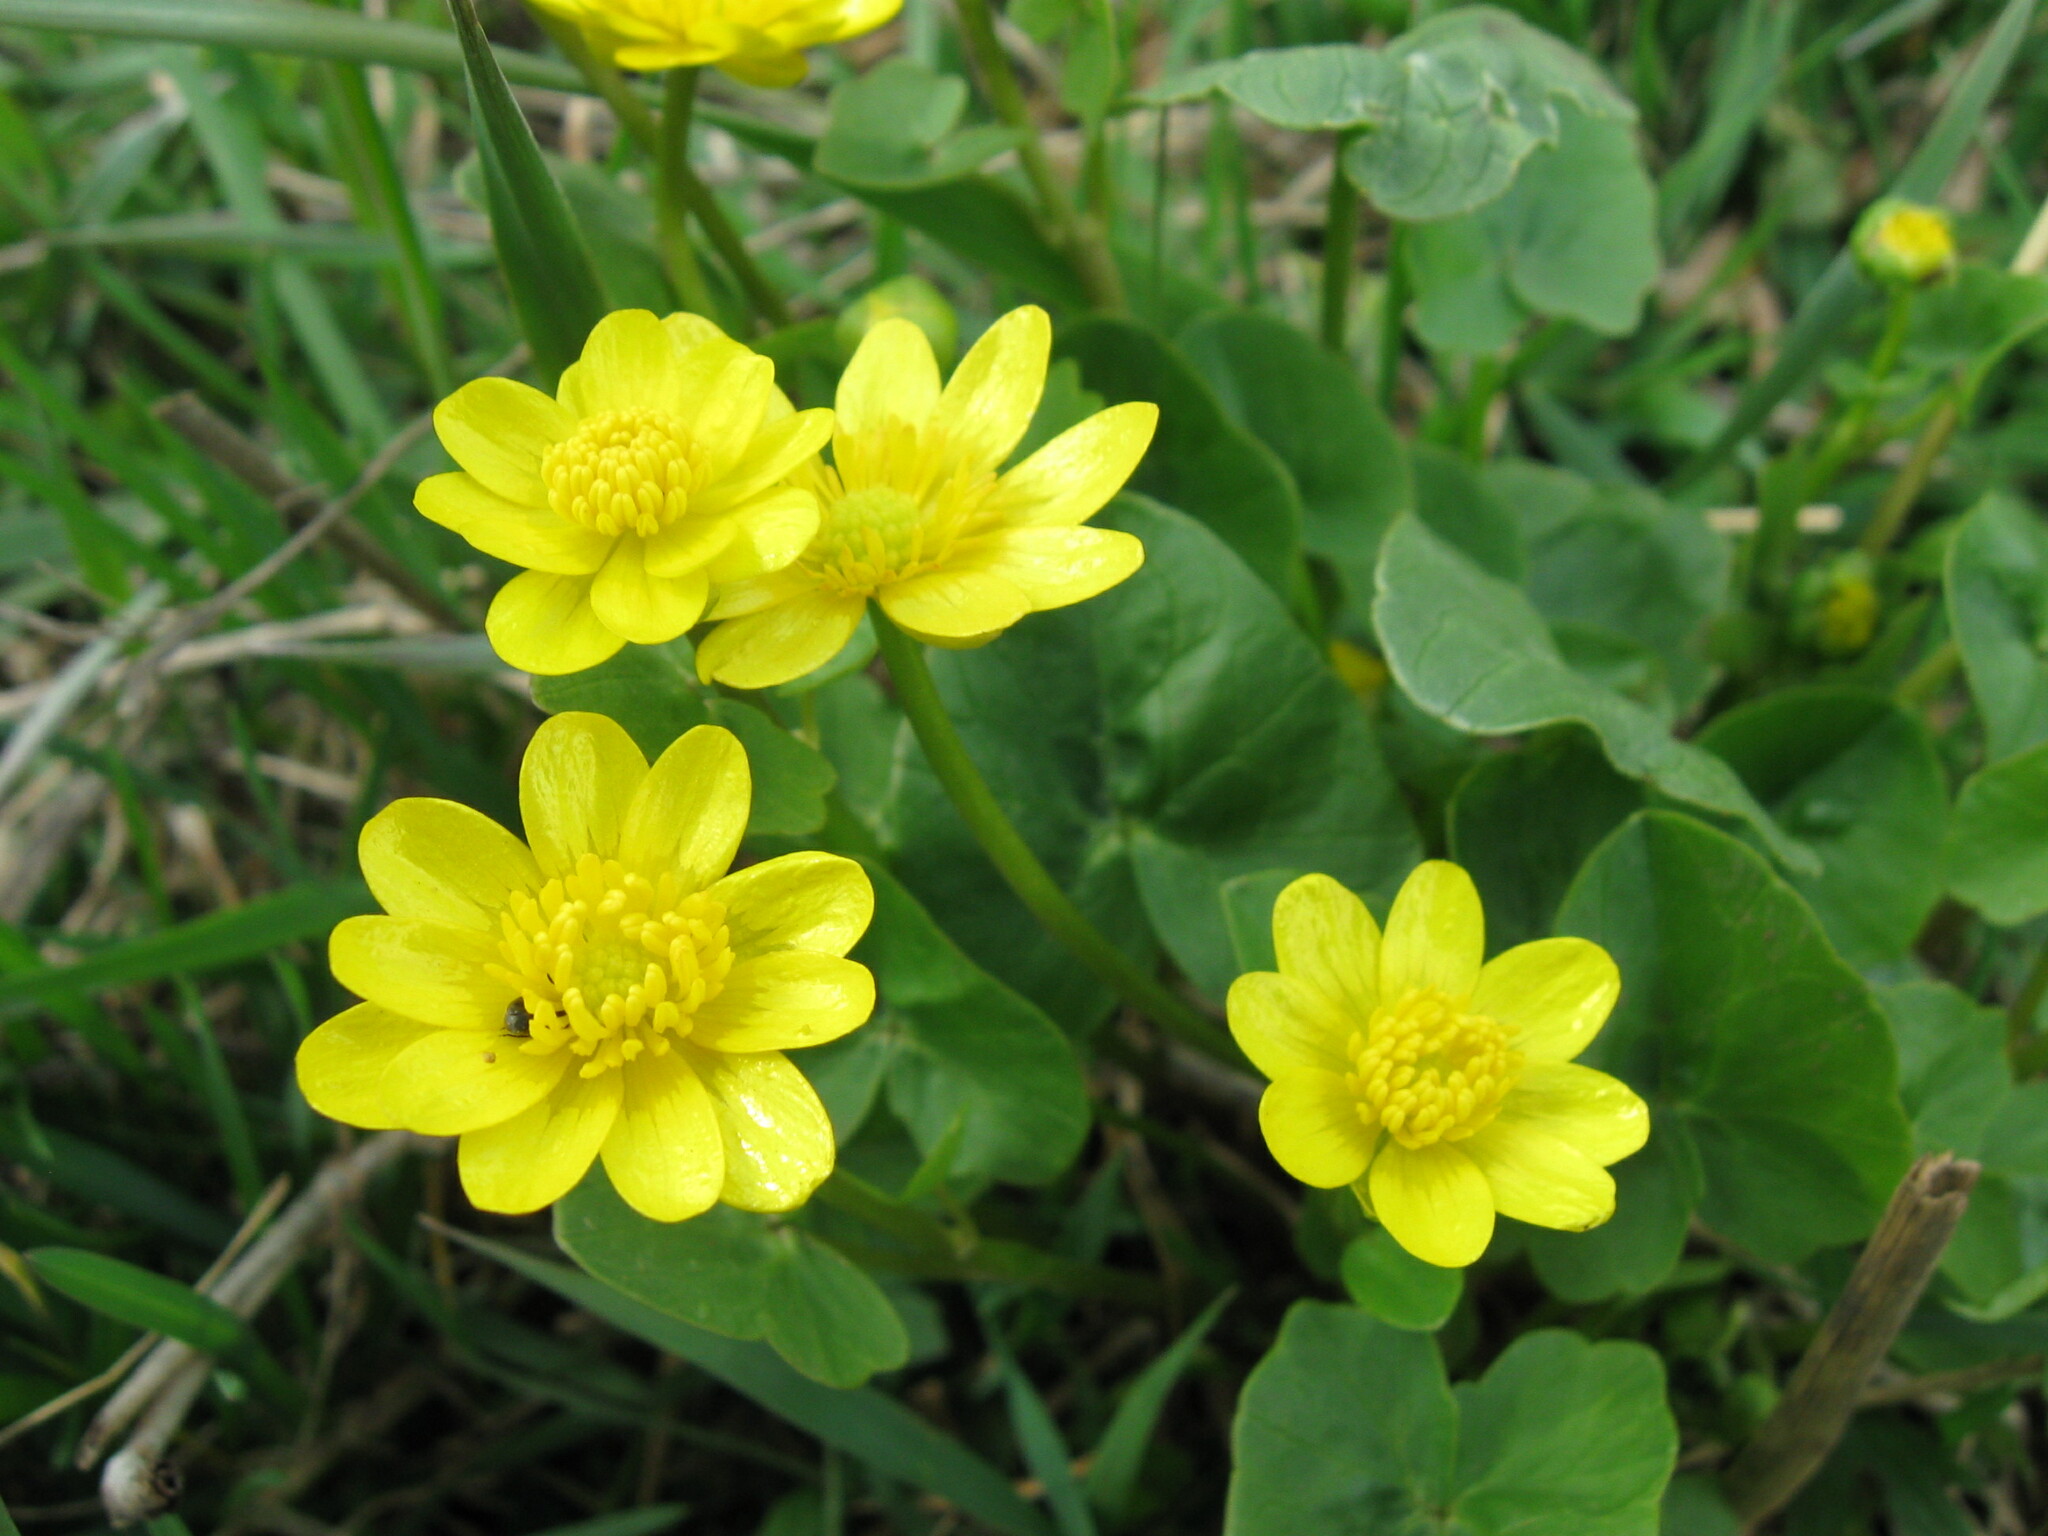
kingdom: Plantae
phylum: Tracheophyta
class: Magnoliopsida
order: Ranunculales
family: Ranunculaceae
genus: Ficaria
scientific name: Ficaria verna
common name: Lesser celandine
